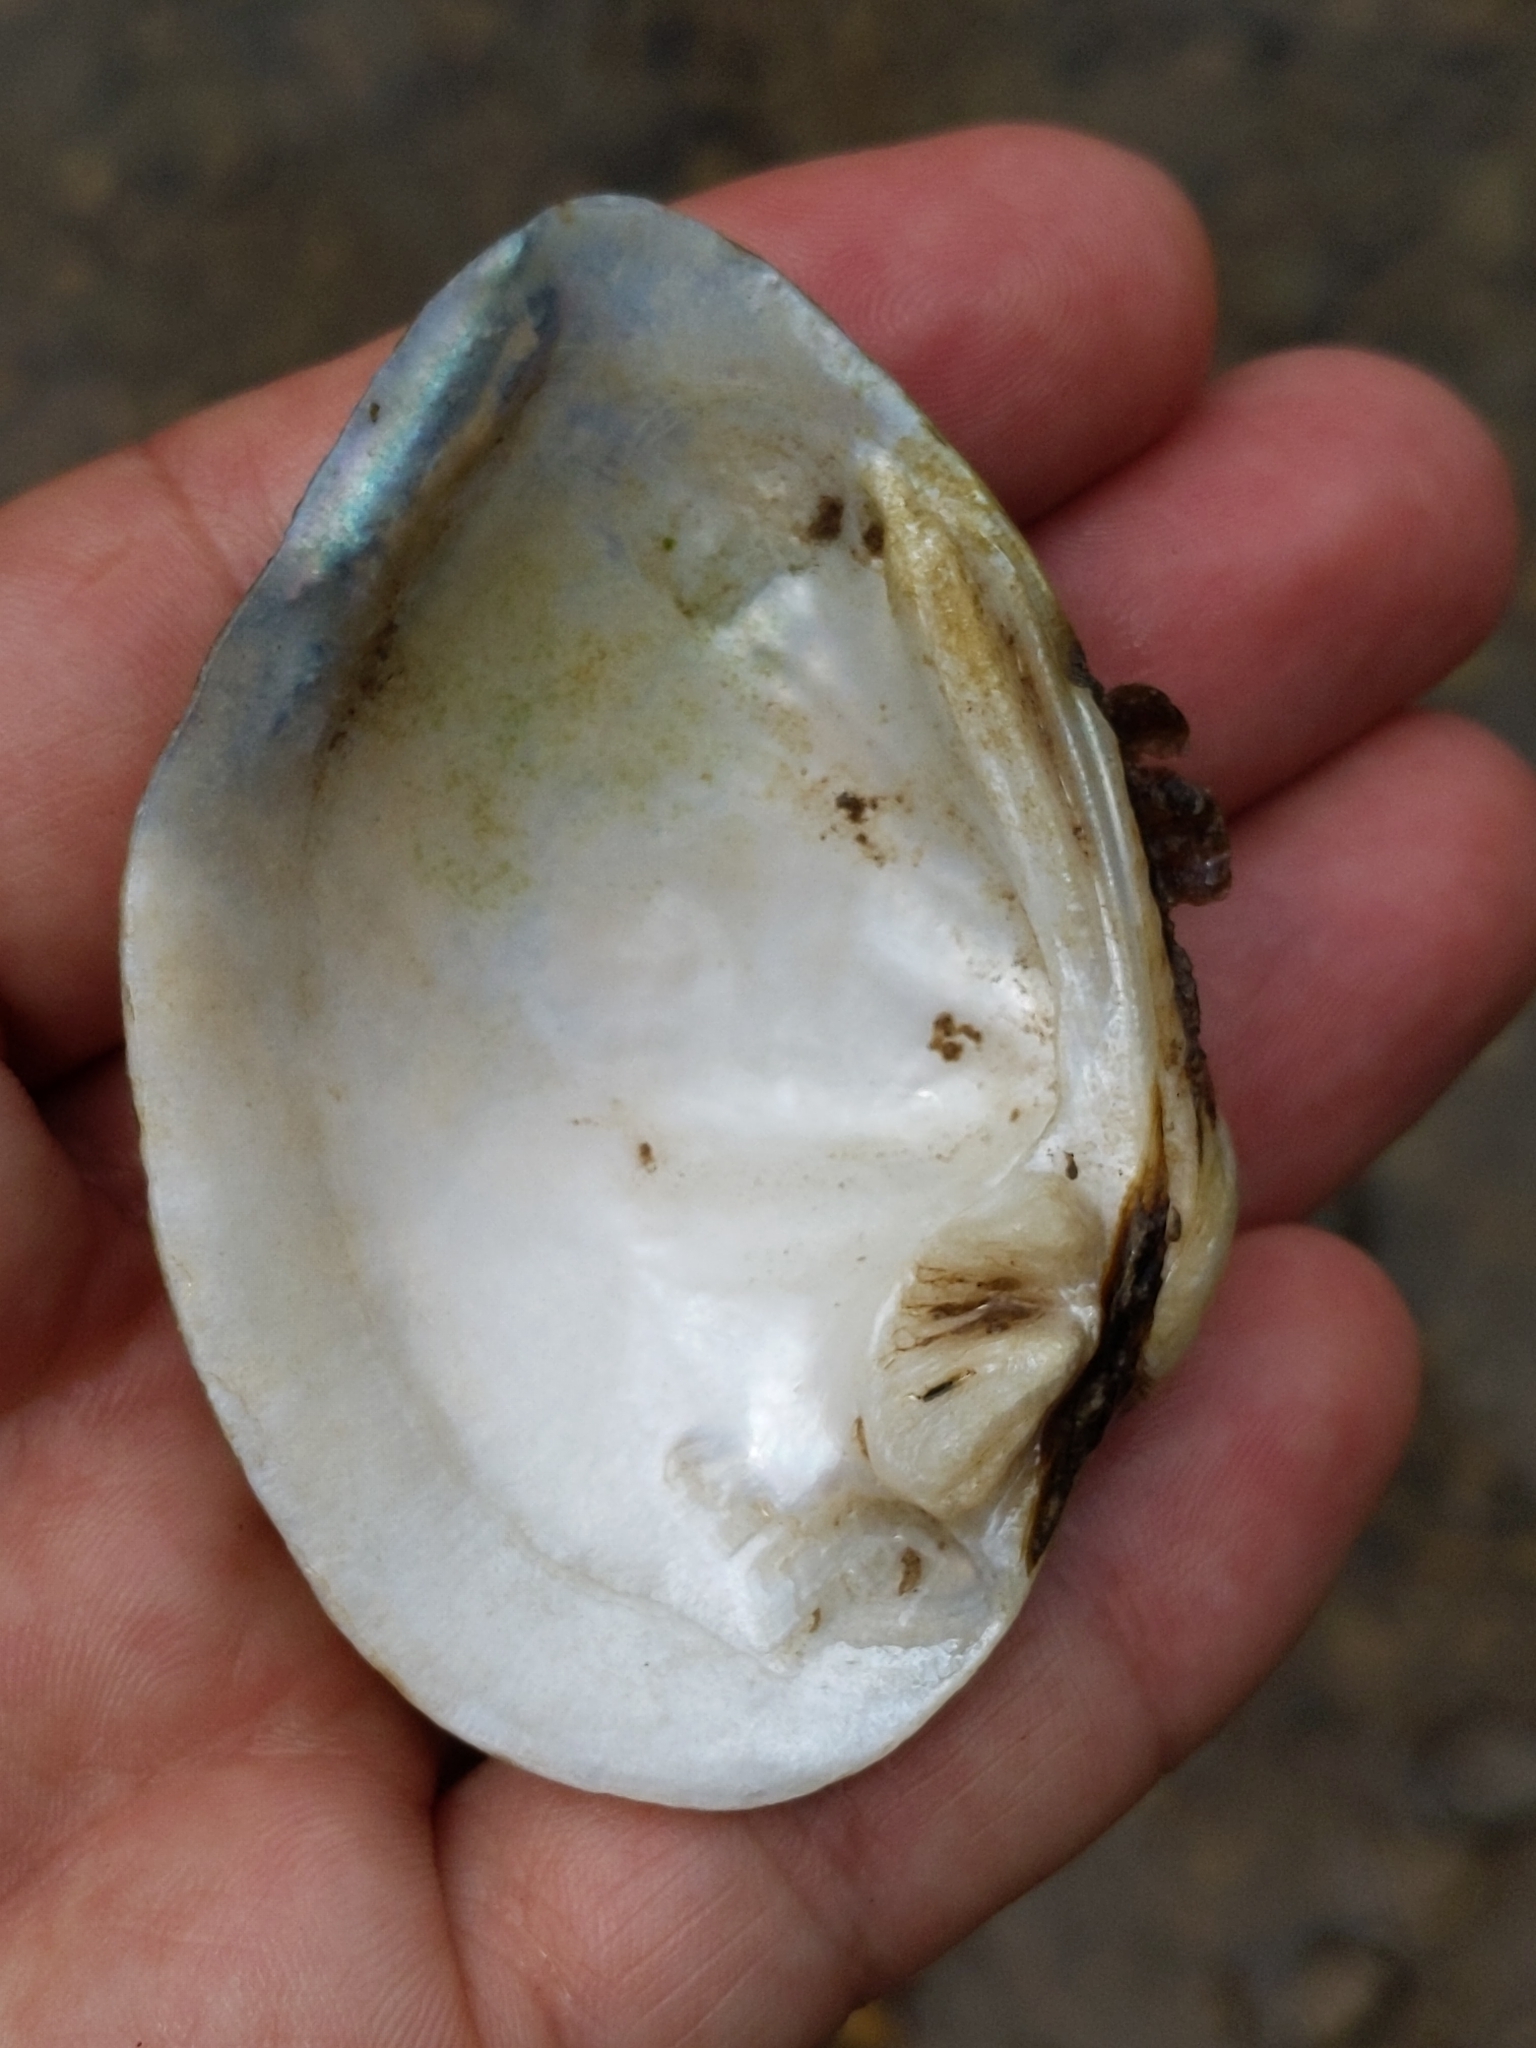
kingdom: Animalia
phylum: Mollusca
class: Bivalvia
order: Unionida
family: Unionidae
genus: Truncilla
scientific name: Truncilla truncata
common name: Deertoe
